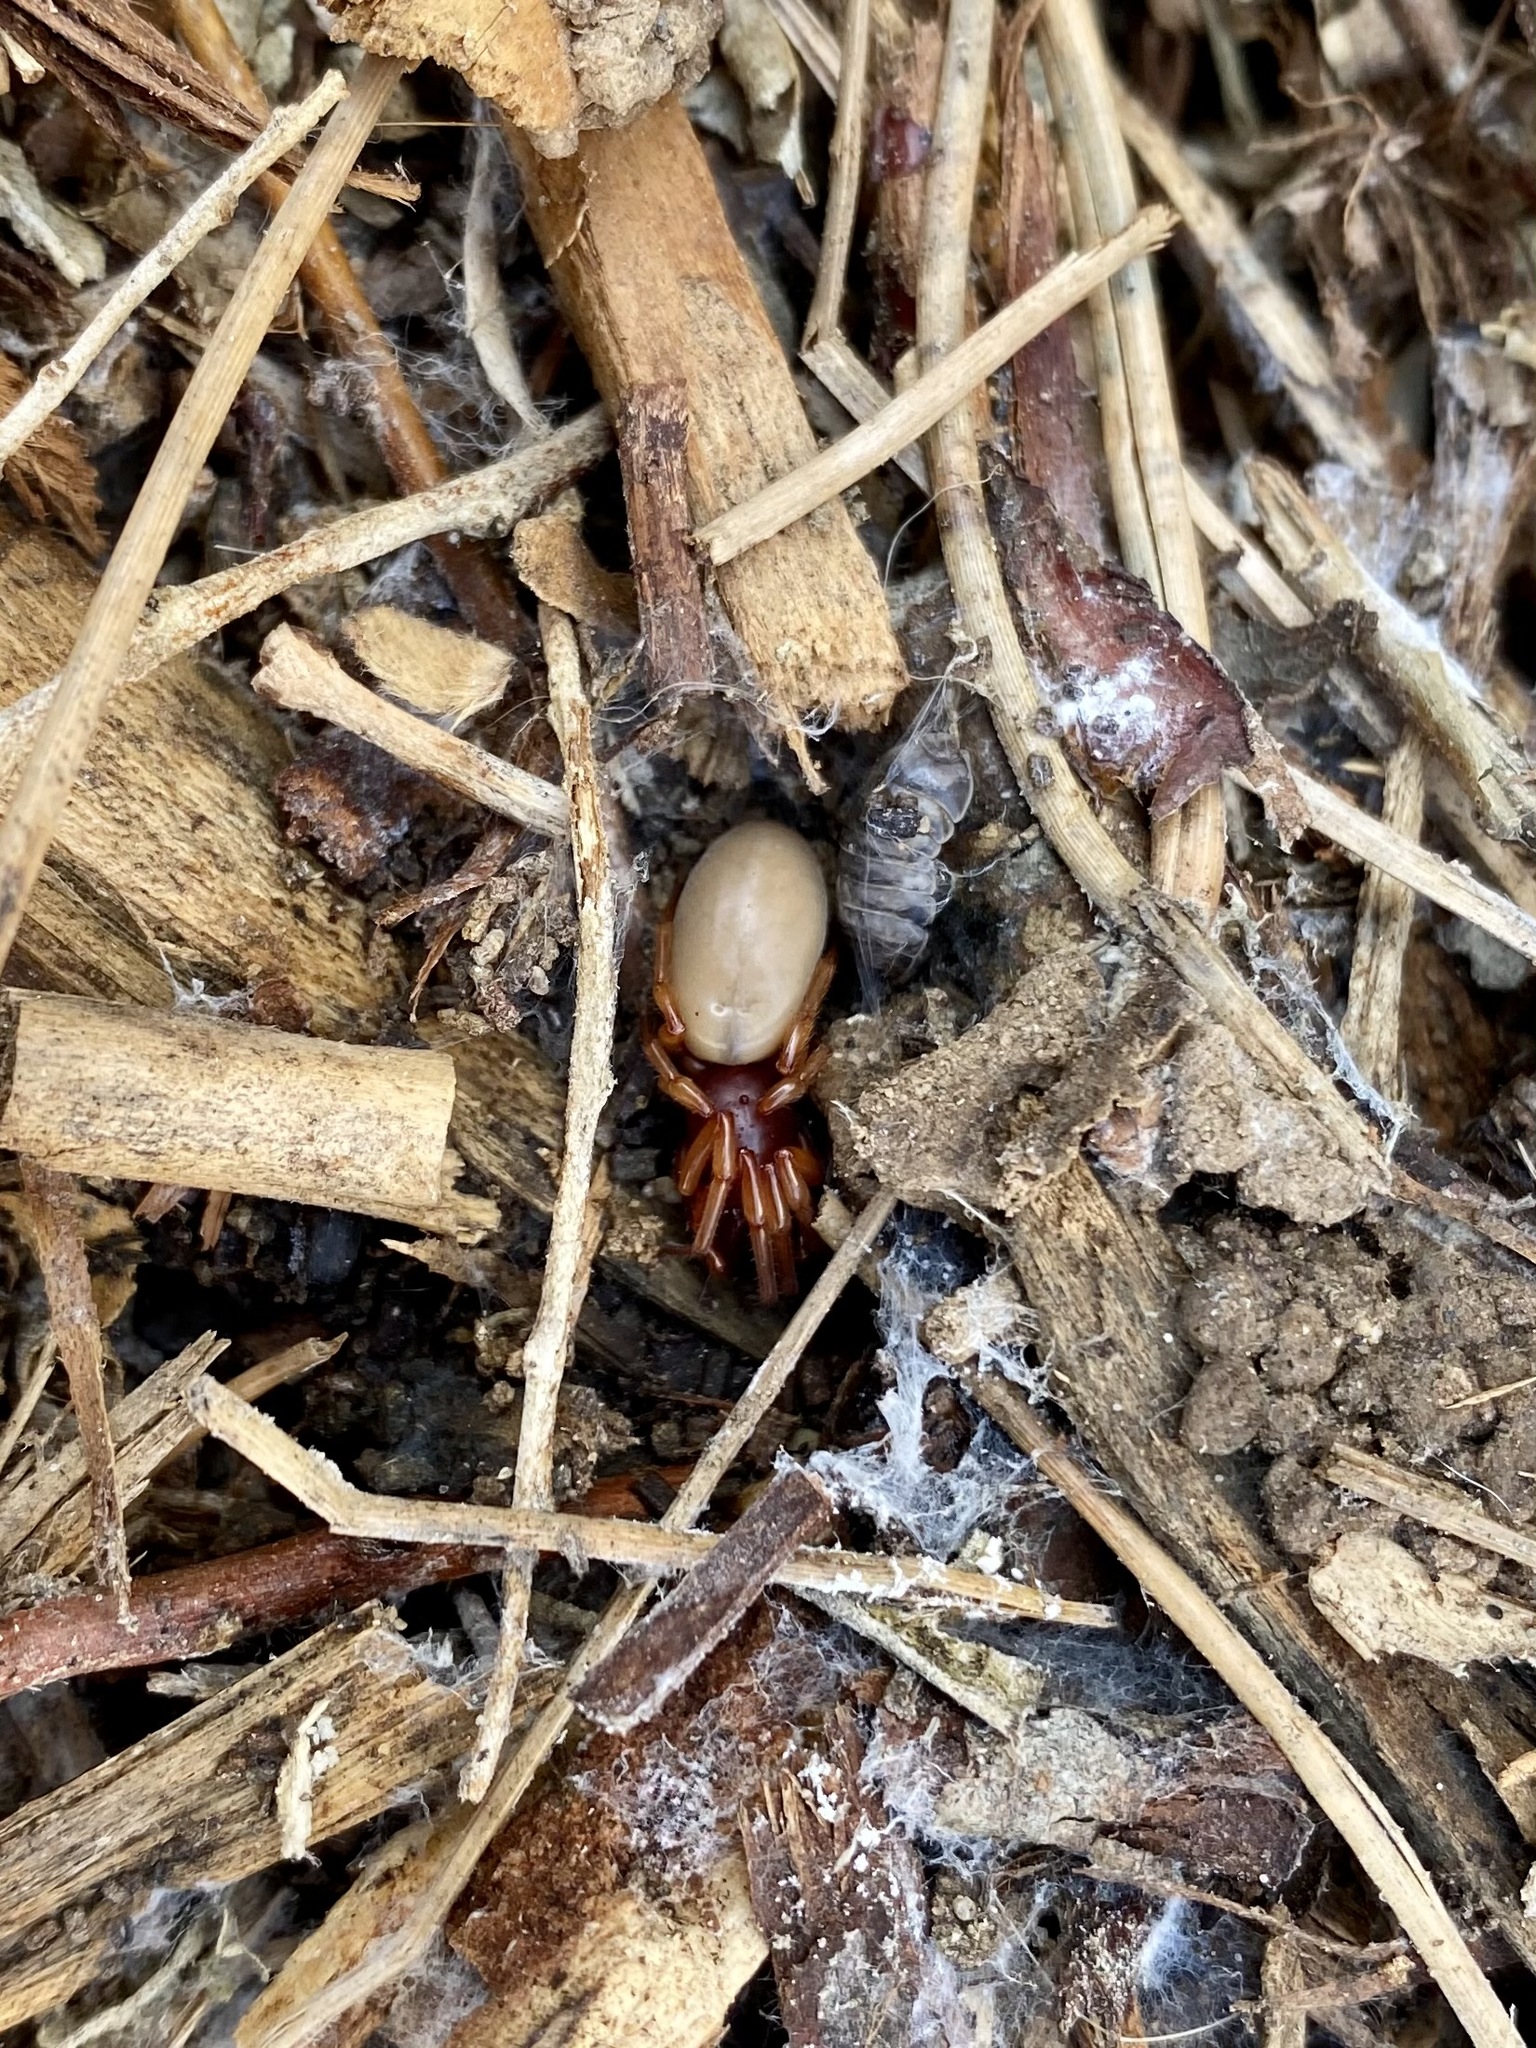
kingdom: Animalia
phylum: Arthropoda
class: Arachnida
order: Araneae
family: Dysderidae
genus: Dysdera
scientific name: Dysdera crocata
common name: Woodlouse spider
